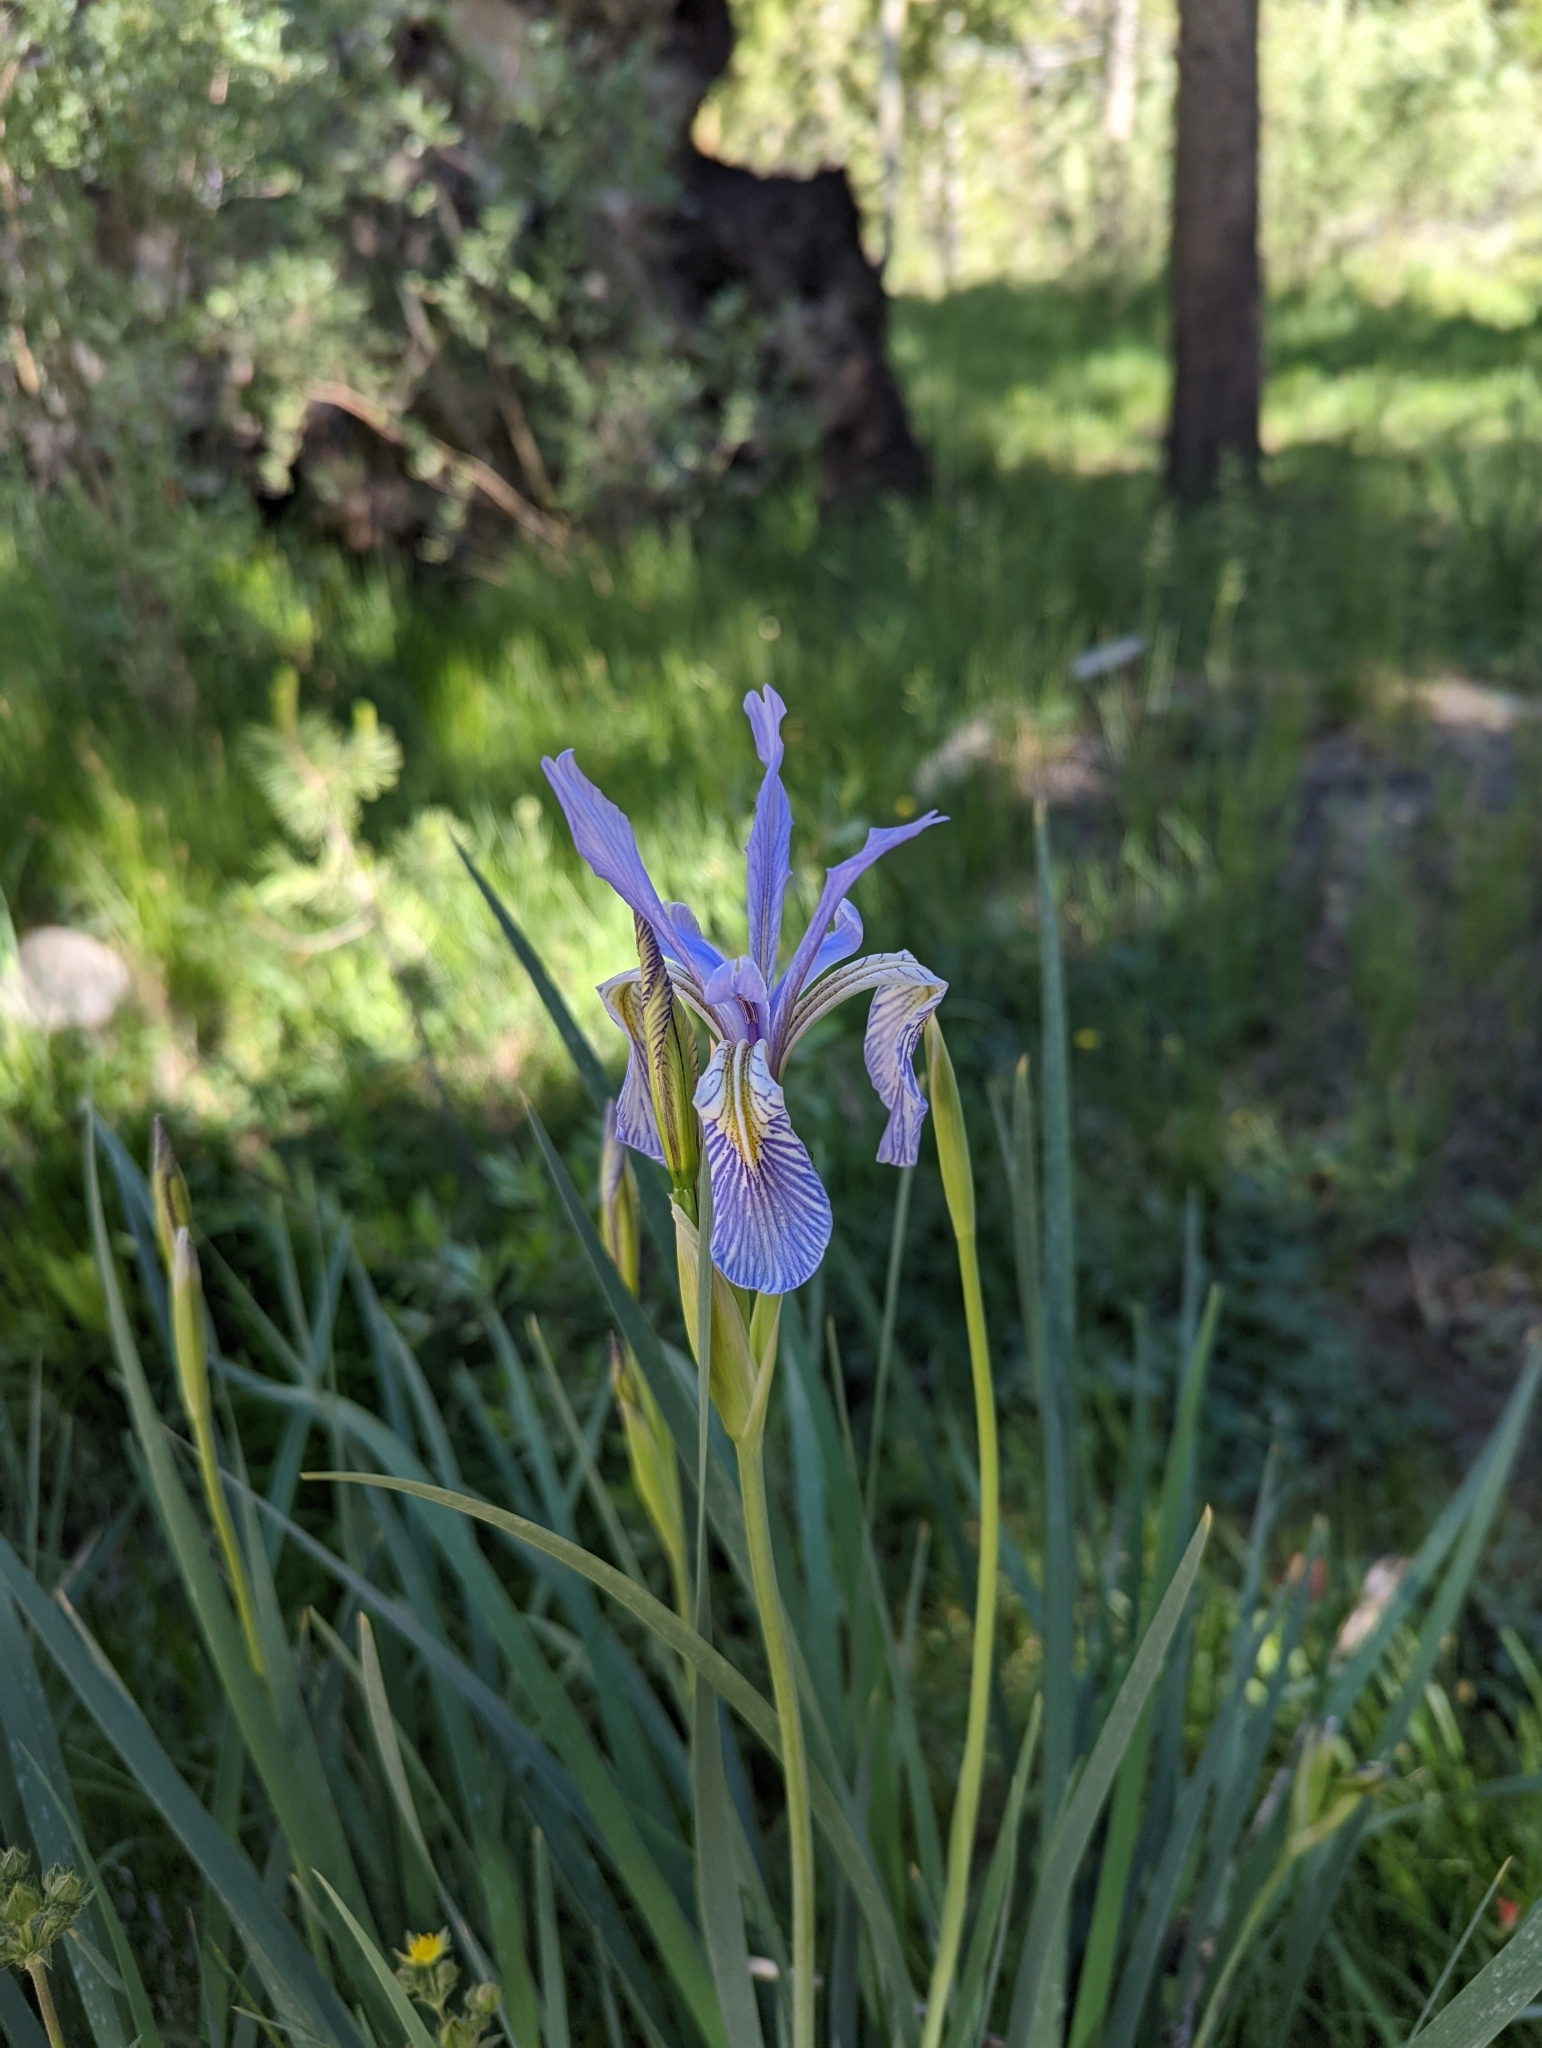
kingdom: Plantae
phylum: Tracheophyta
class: Liliopsida
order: Asparagales
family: Iridaceae
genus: Iris
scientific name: Iris missouriensis
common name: Rocky mountain iris
